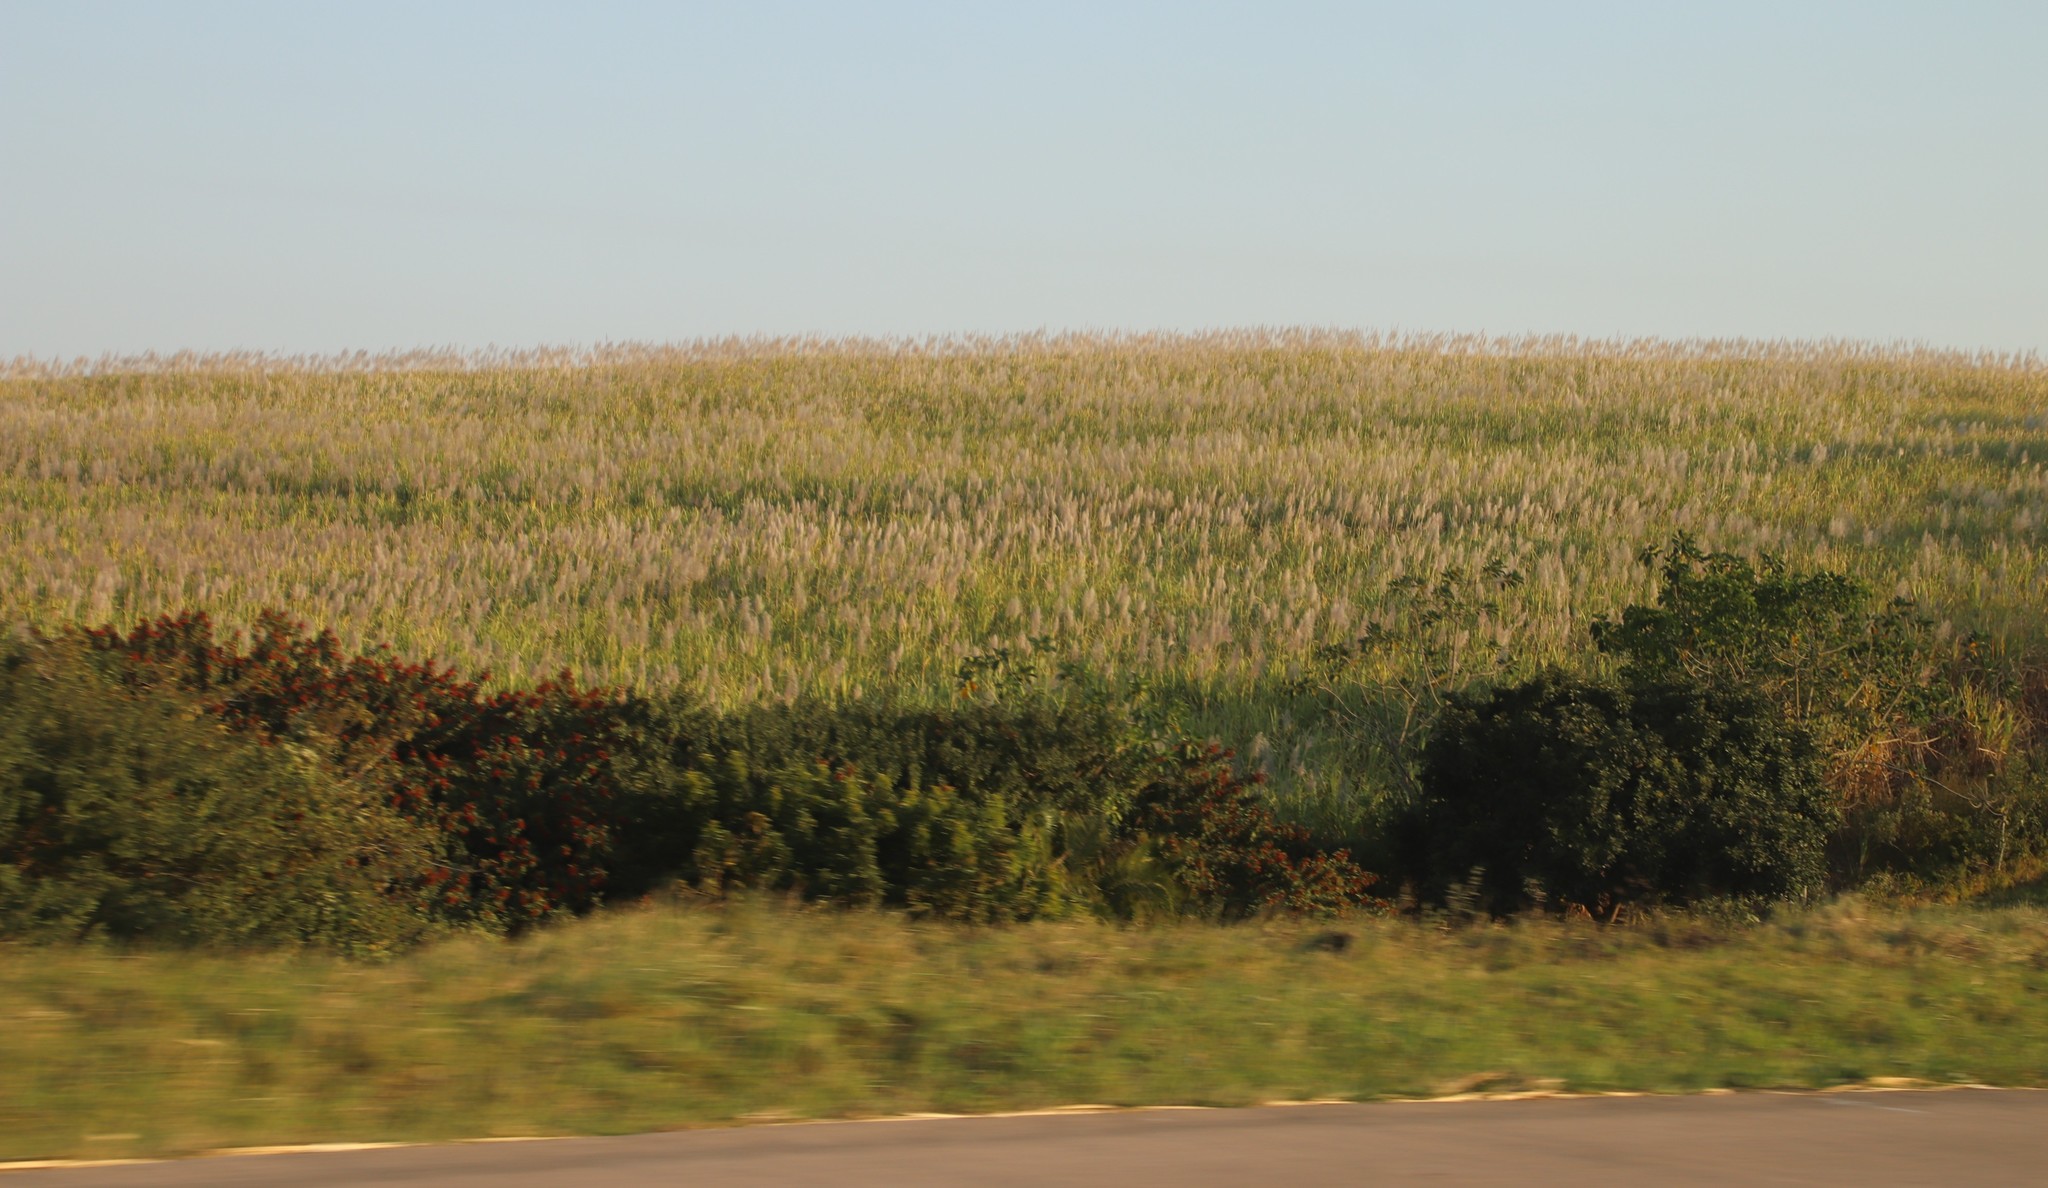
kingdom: Plantae
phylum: Tracheophyta
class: Liliopsida
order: Poales
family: Poaceae
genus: Saccharum
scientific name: Saccharum officinarum
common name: Sugarcane
